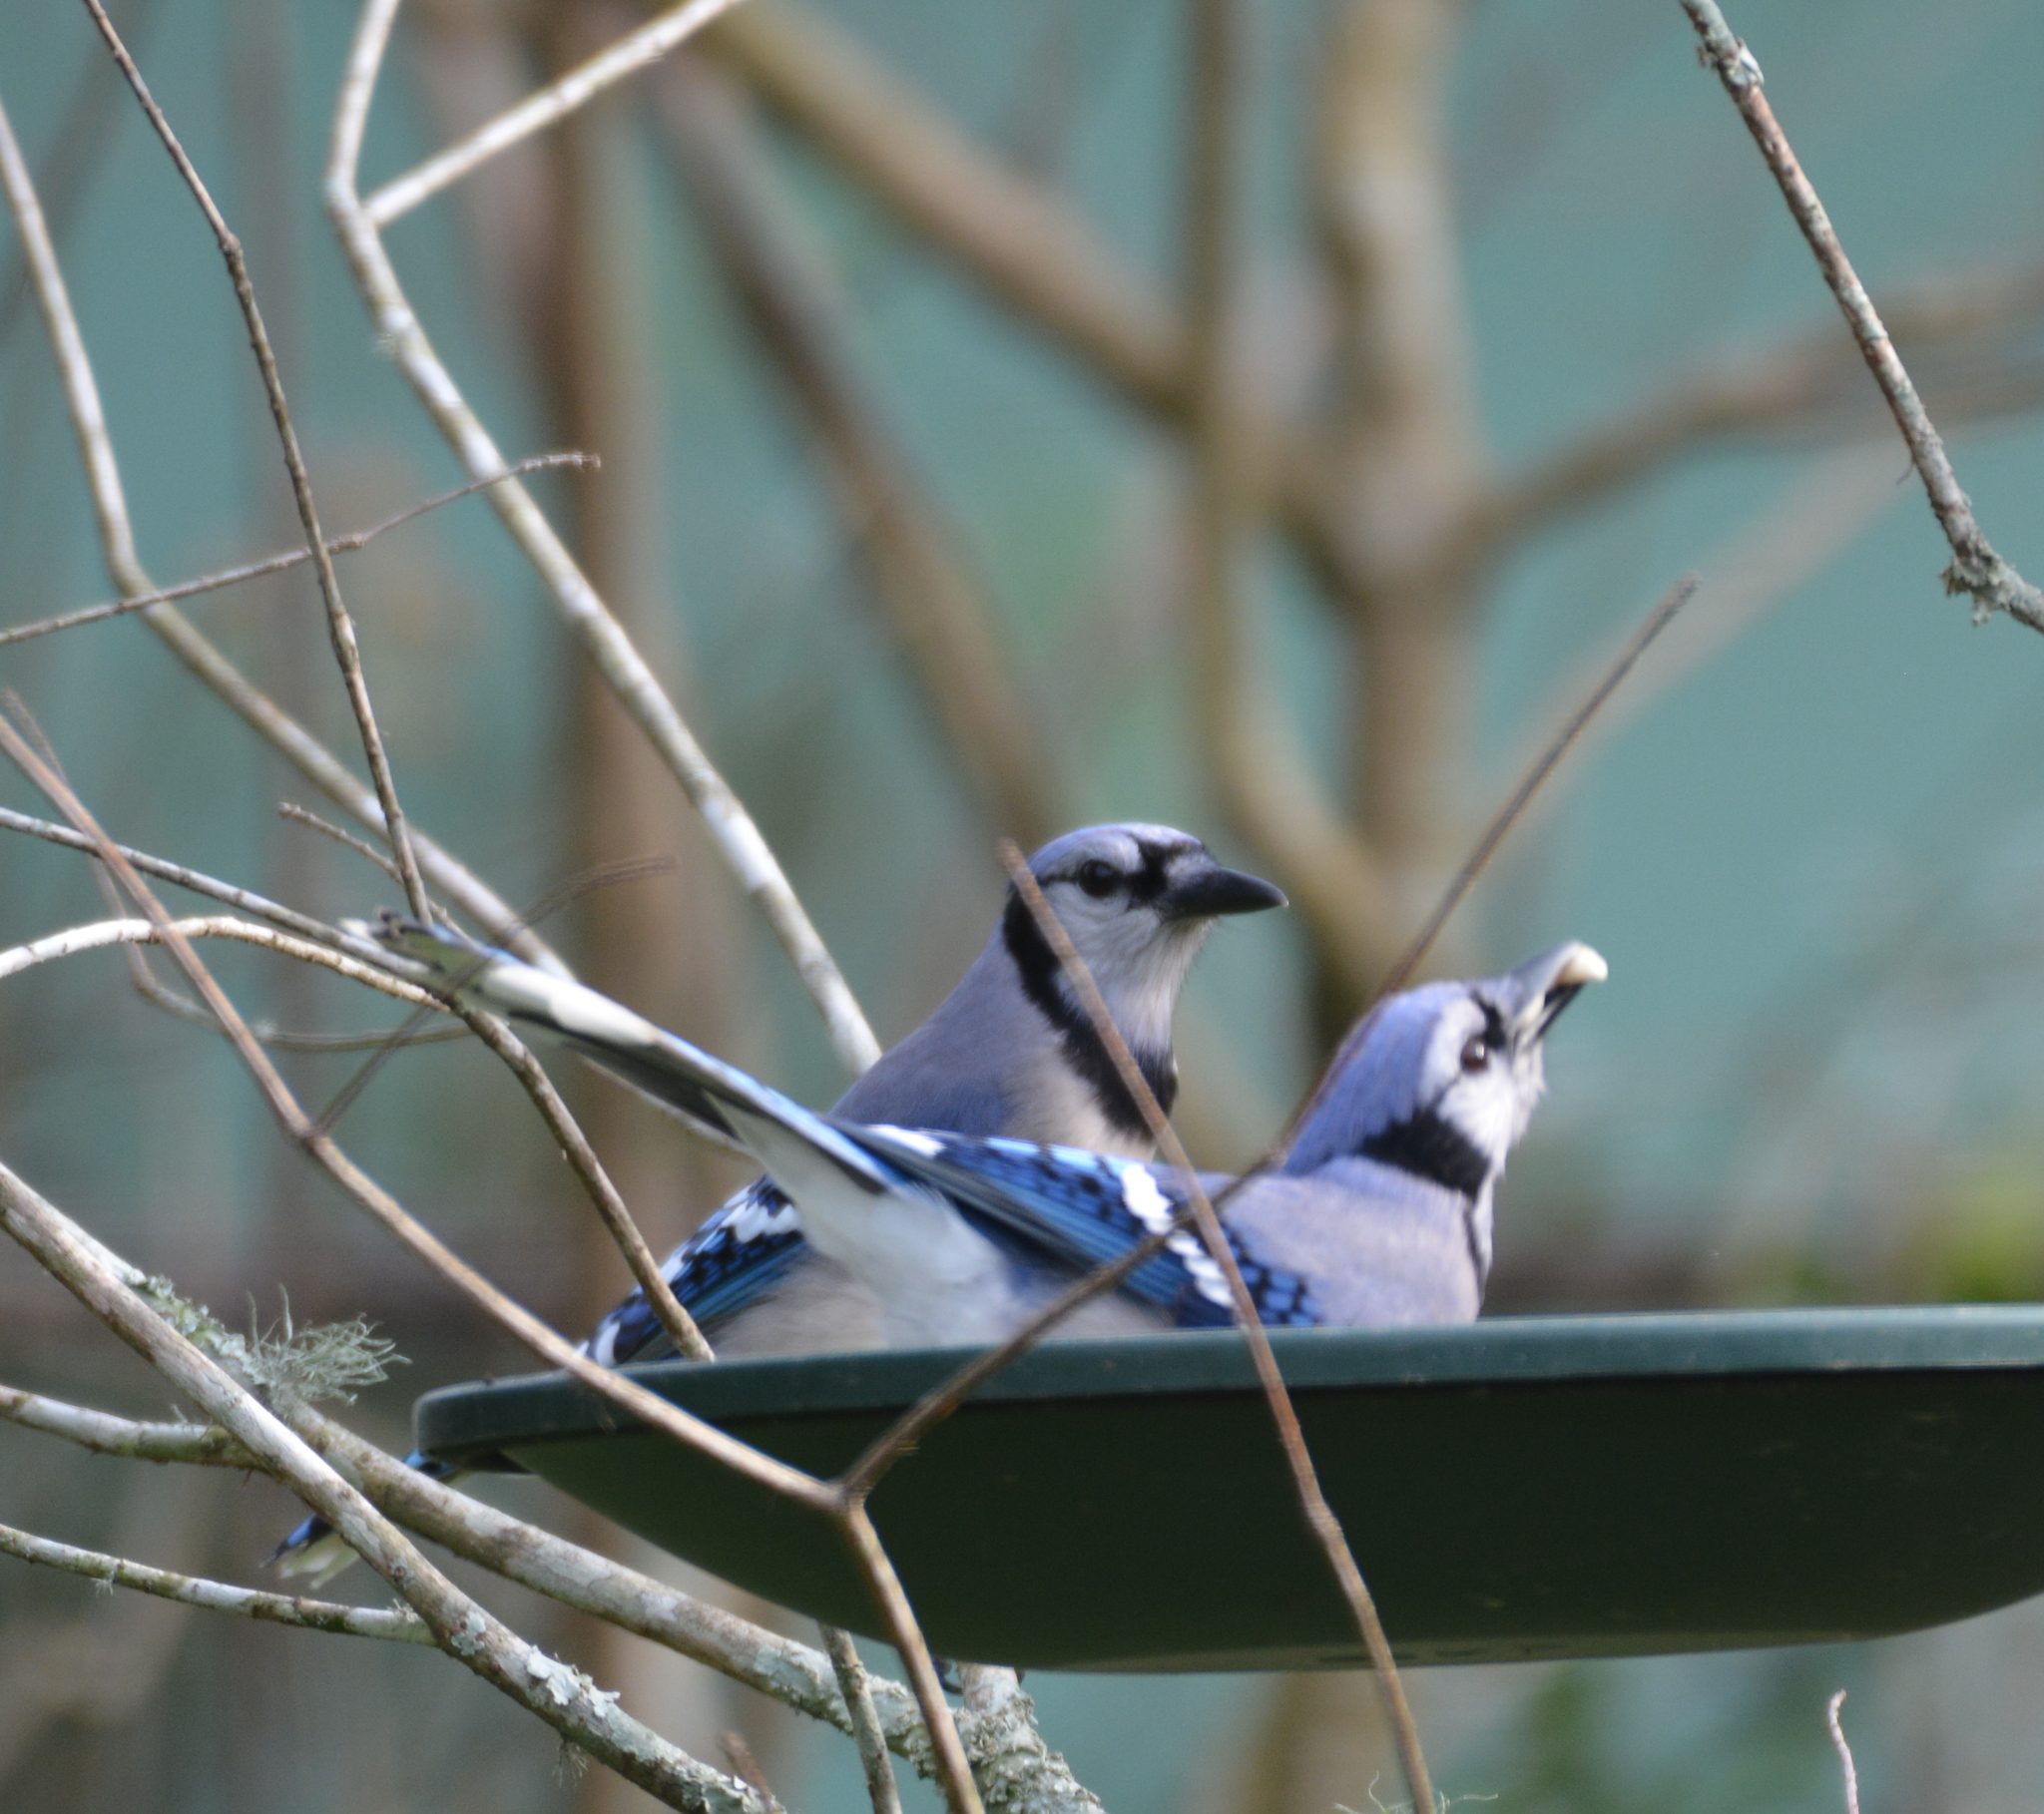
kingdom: Animalia
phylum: Chordata
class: Aves
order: Passeriformes
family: Corvidae
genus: Cyanocitta
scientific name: Cyanocitta cristata
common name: Blue jay
